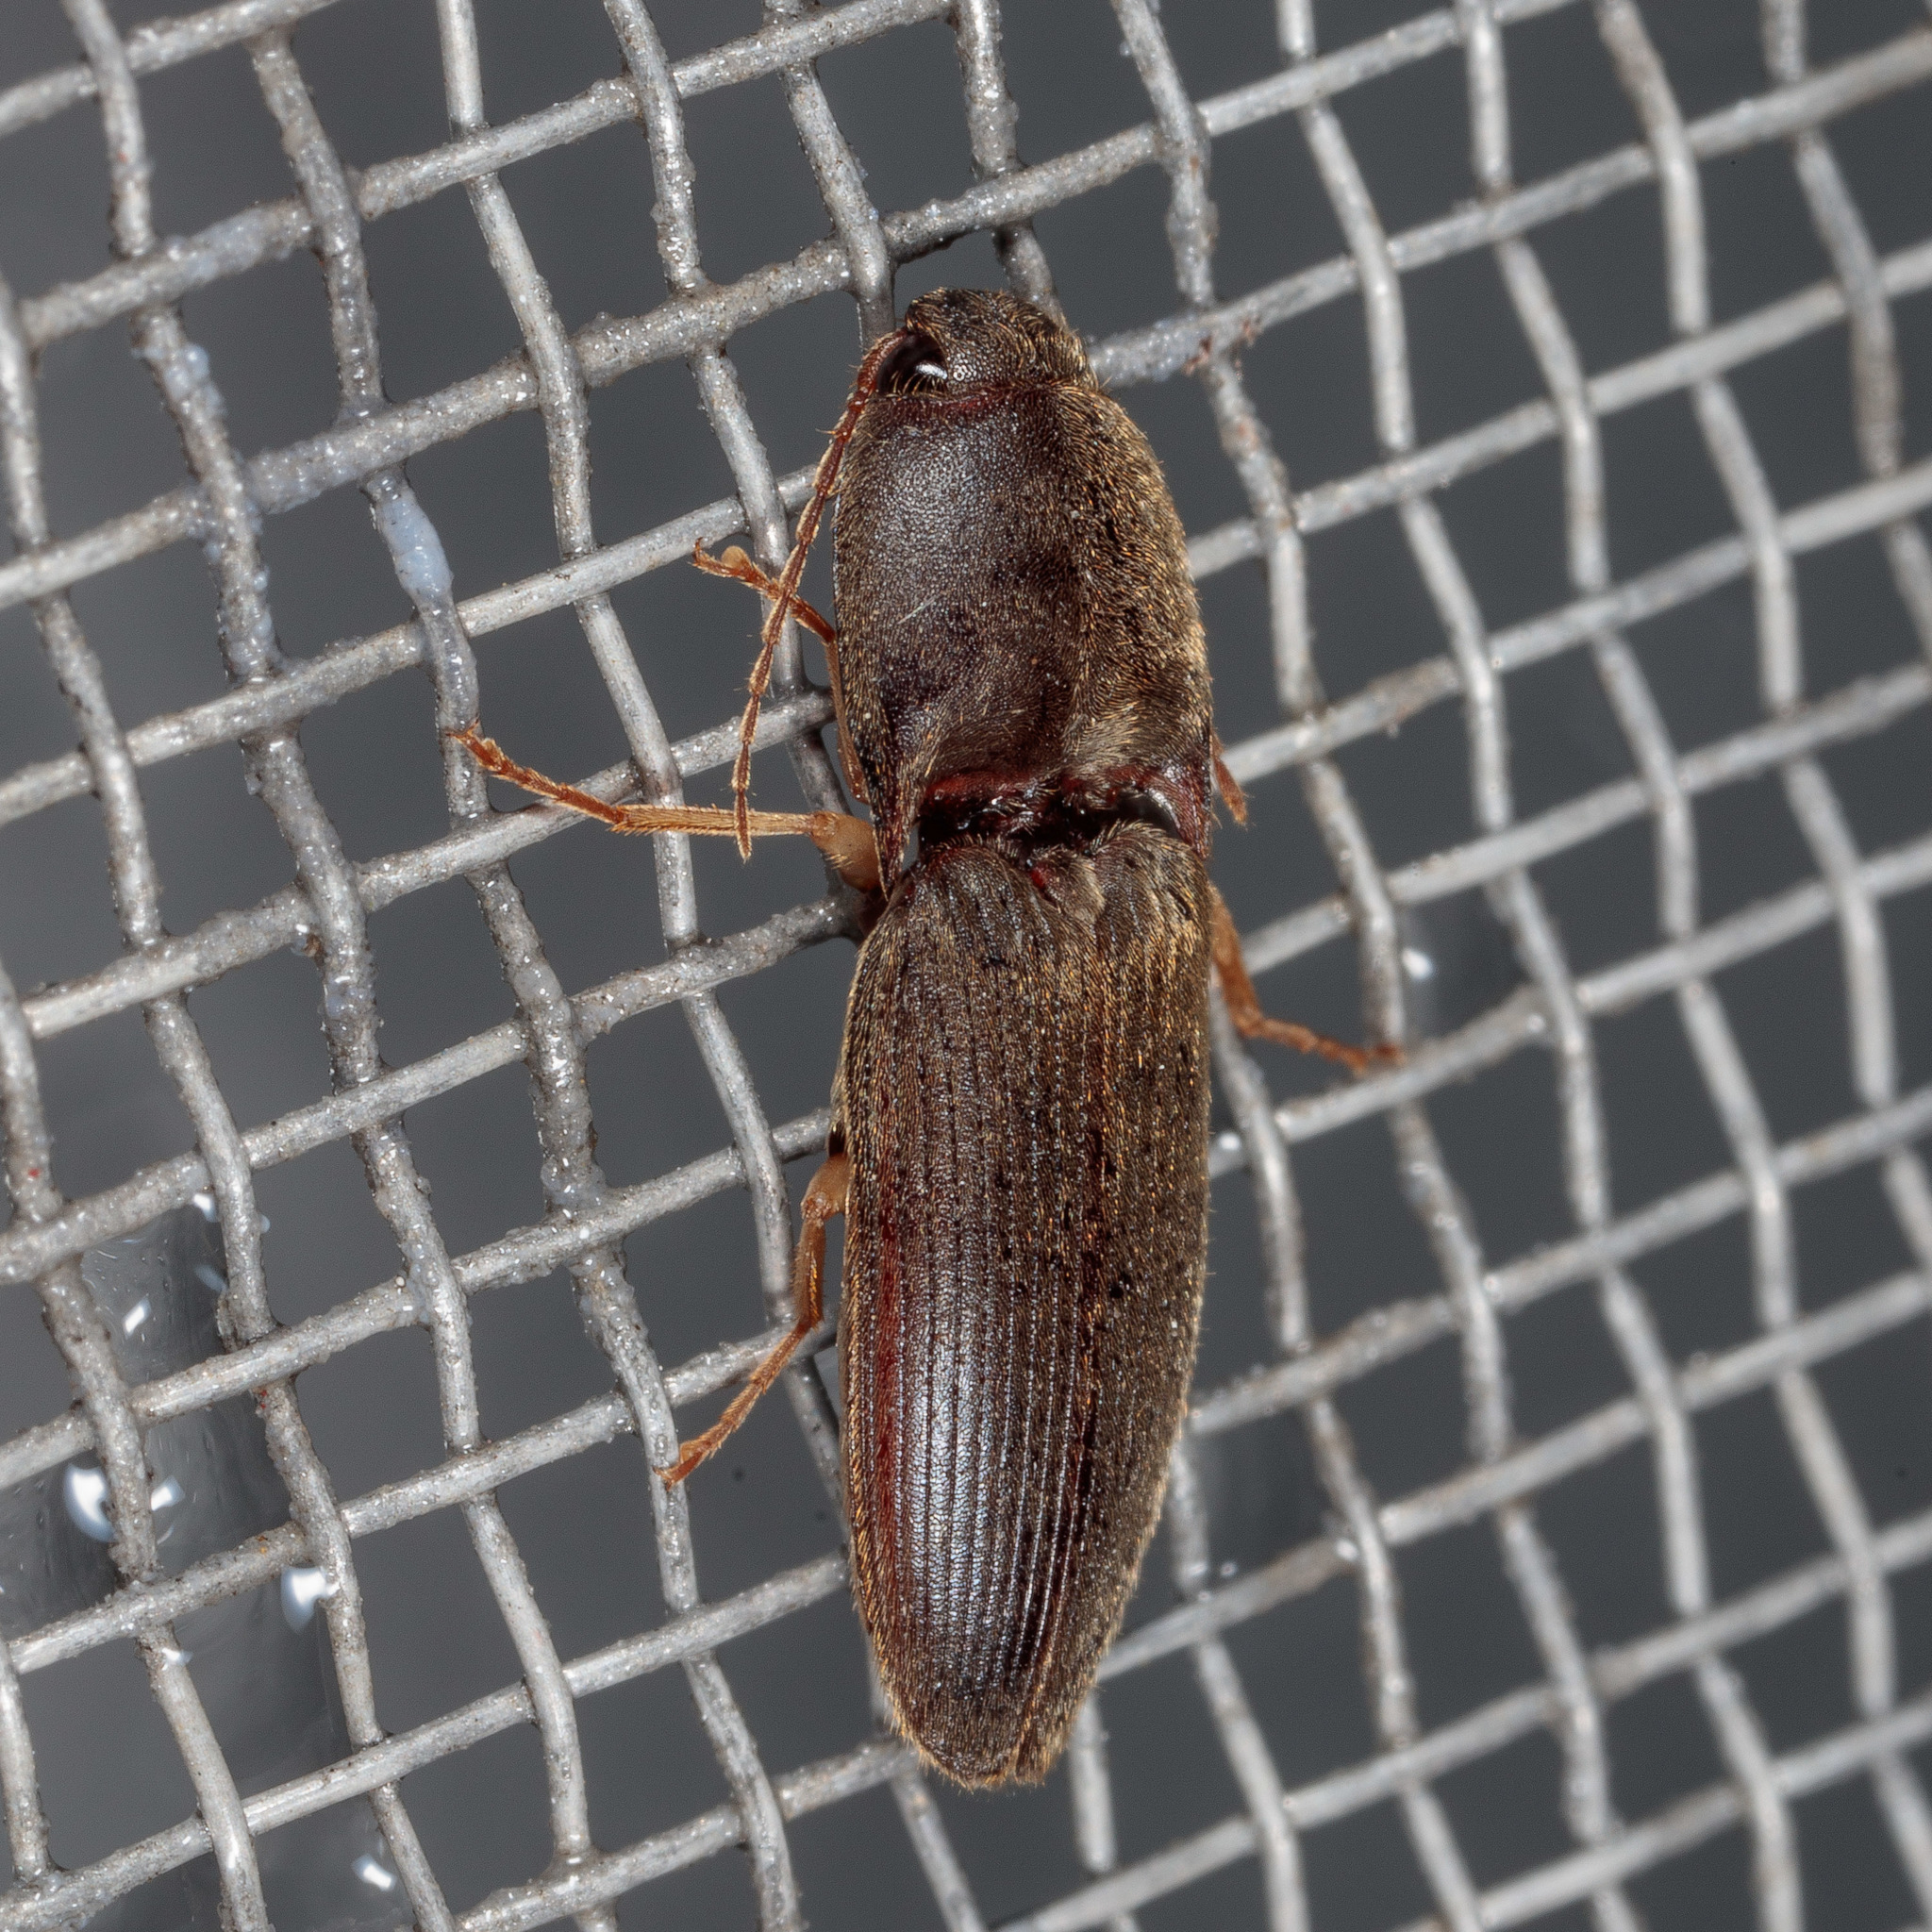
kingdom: Animalia
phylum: Arthropoda
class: Insecta
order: Coleoptera
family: Elateridae
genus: Conoderus
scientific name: Conoderus exsul
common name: Click beetle
